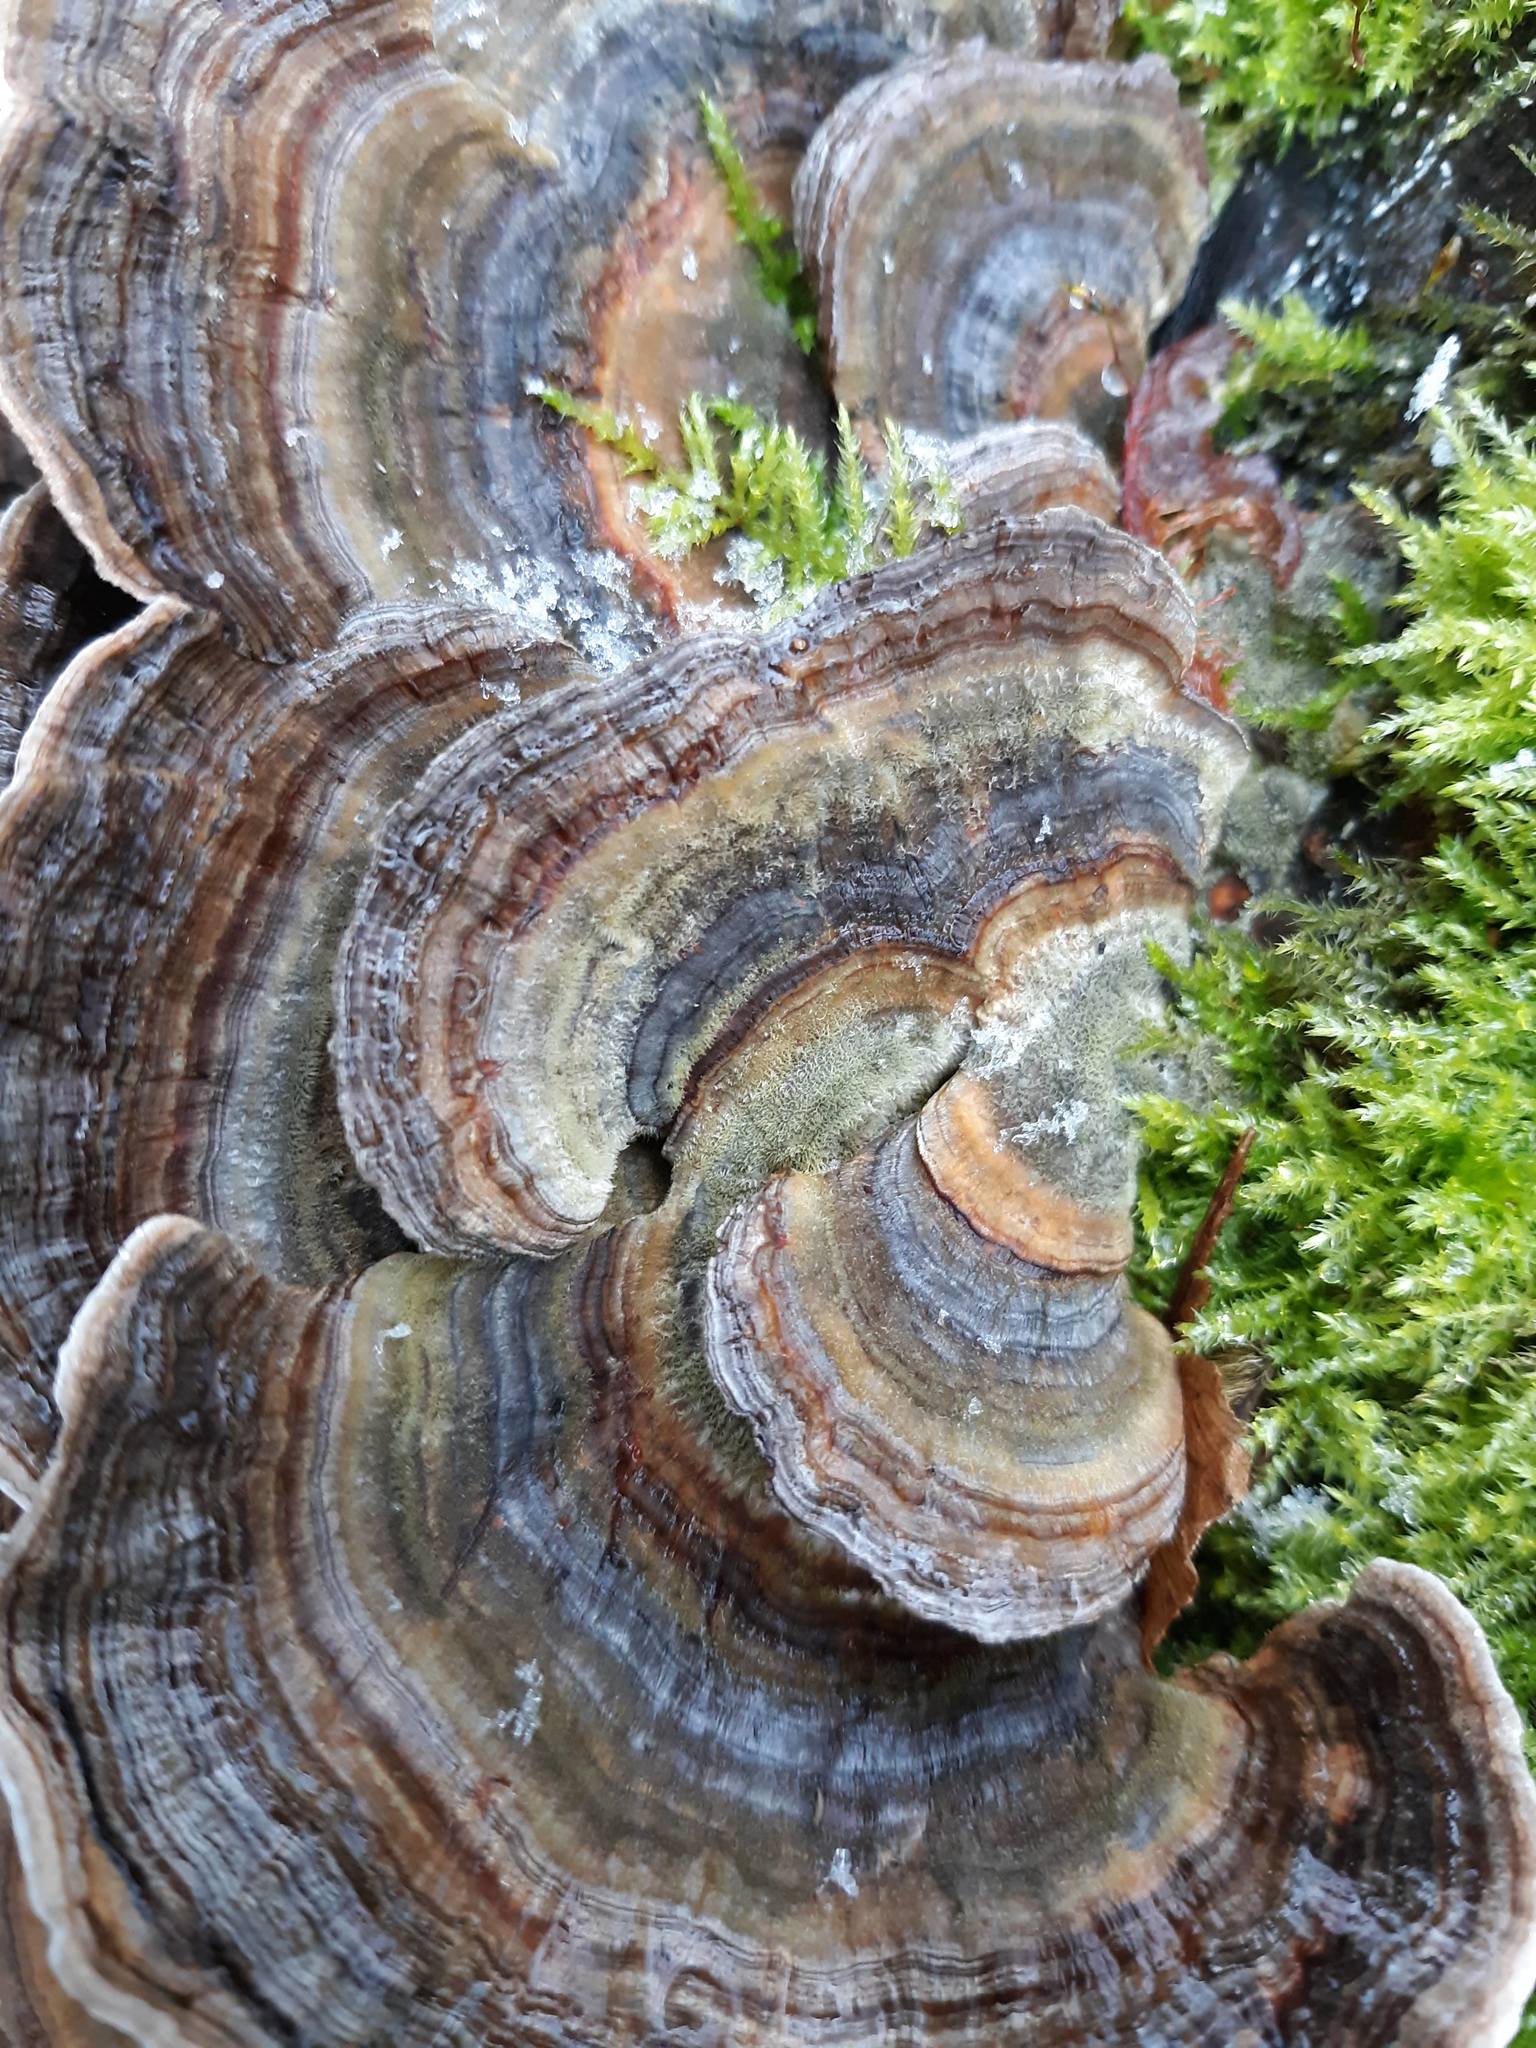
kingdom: Fungi
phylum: Basidiomycota
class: Agaricomycetes
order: Polyporales
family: Polyporaceae
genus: Trametes
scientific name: Trametes versicolor
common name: Turkeytail
